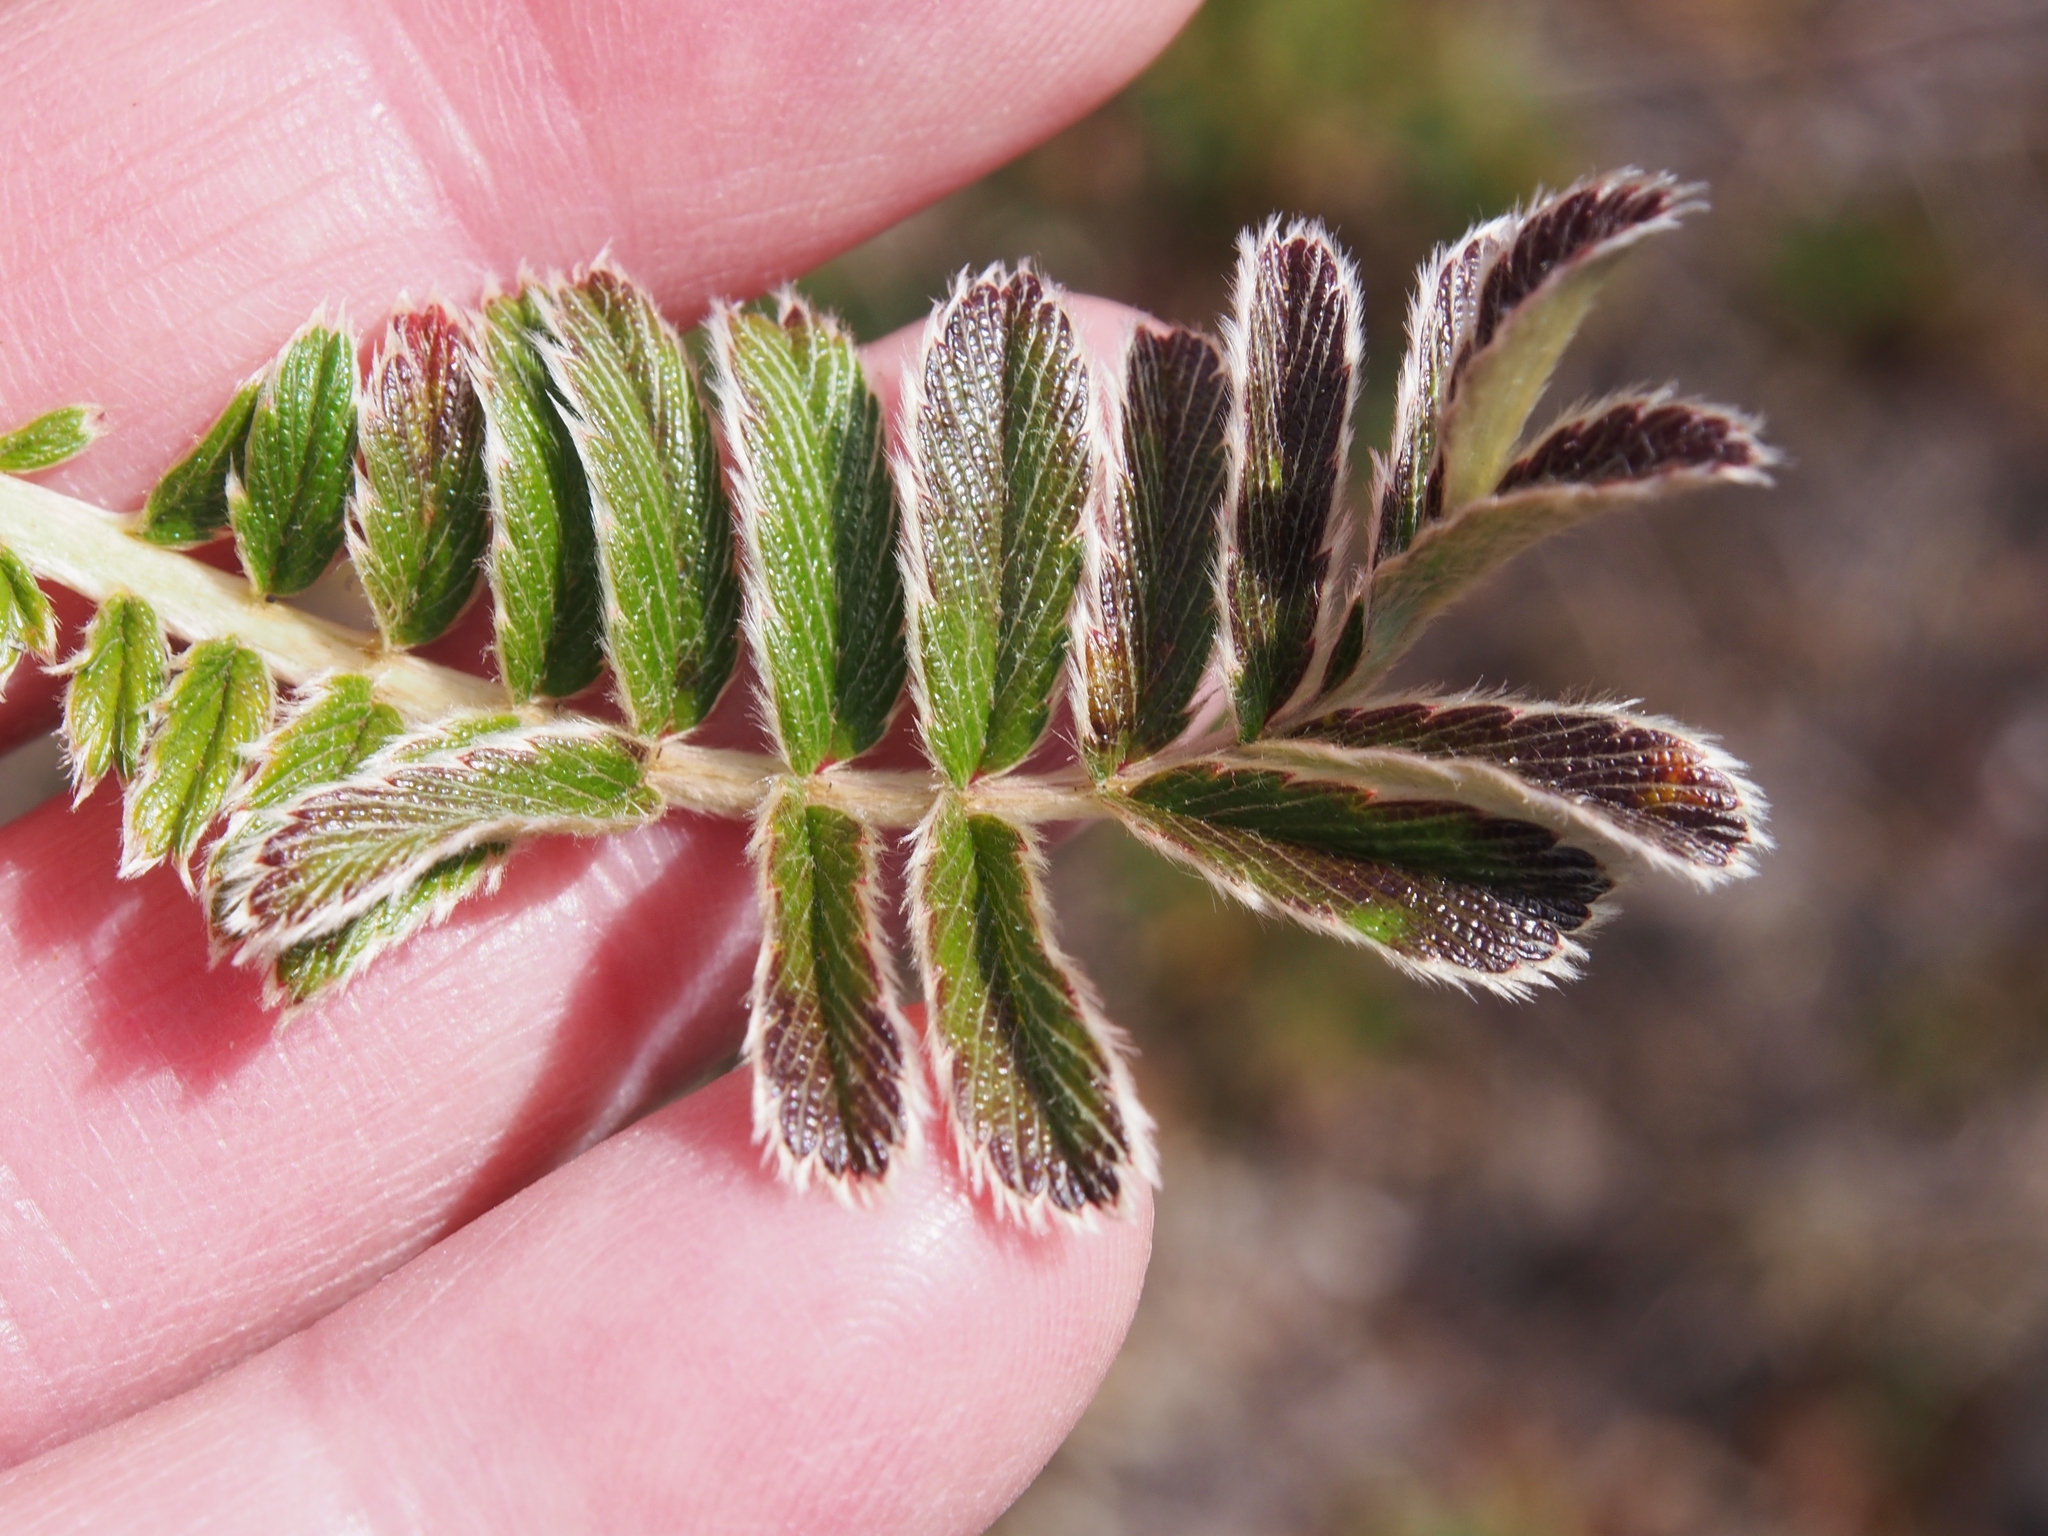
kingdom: Plantae
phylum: Tracheophyta
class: Magnoliopsida
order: Rosales
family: Rosaceae
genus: Acaena
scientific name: Acaena cylindristachya
